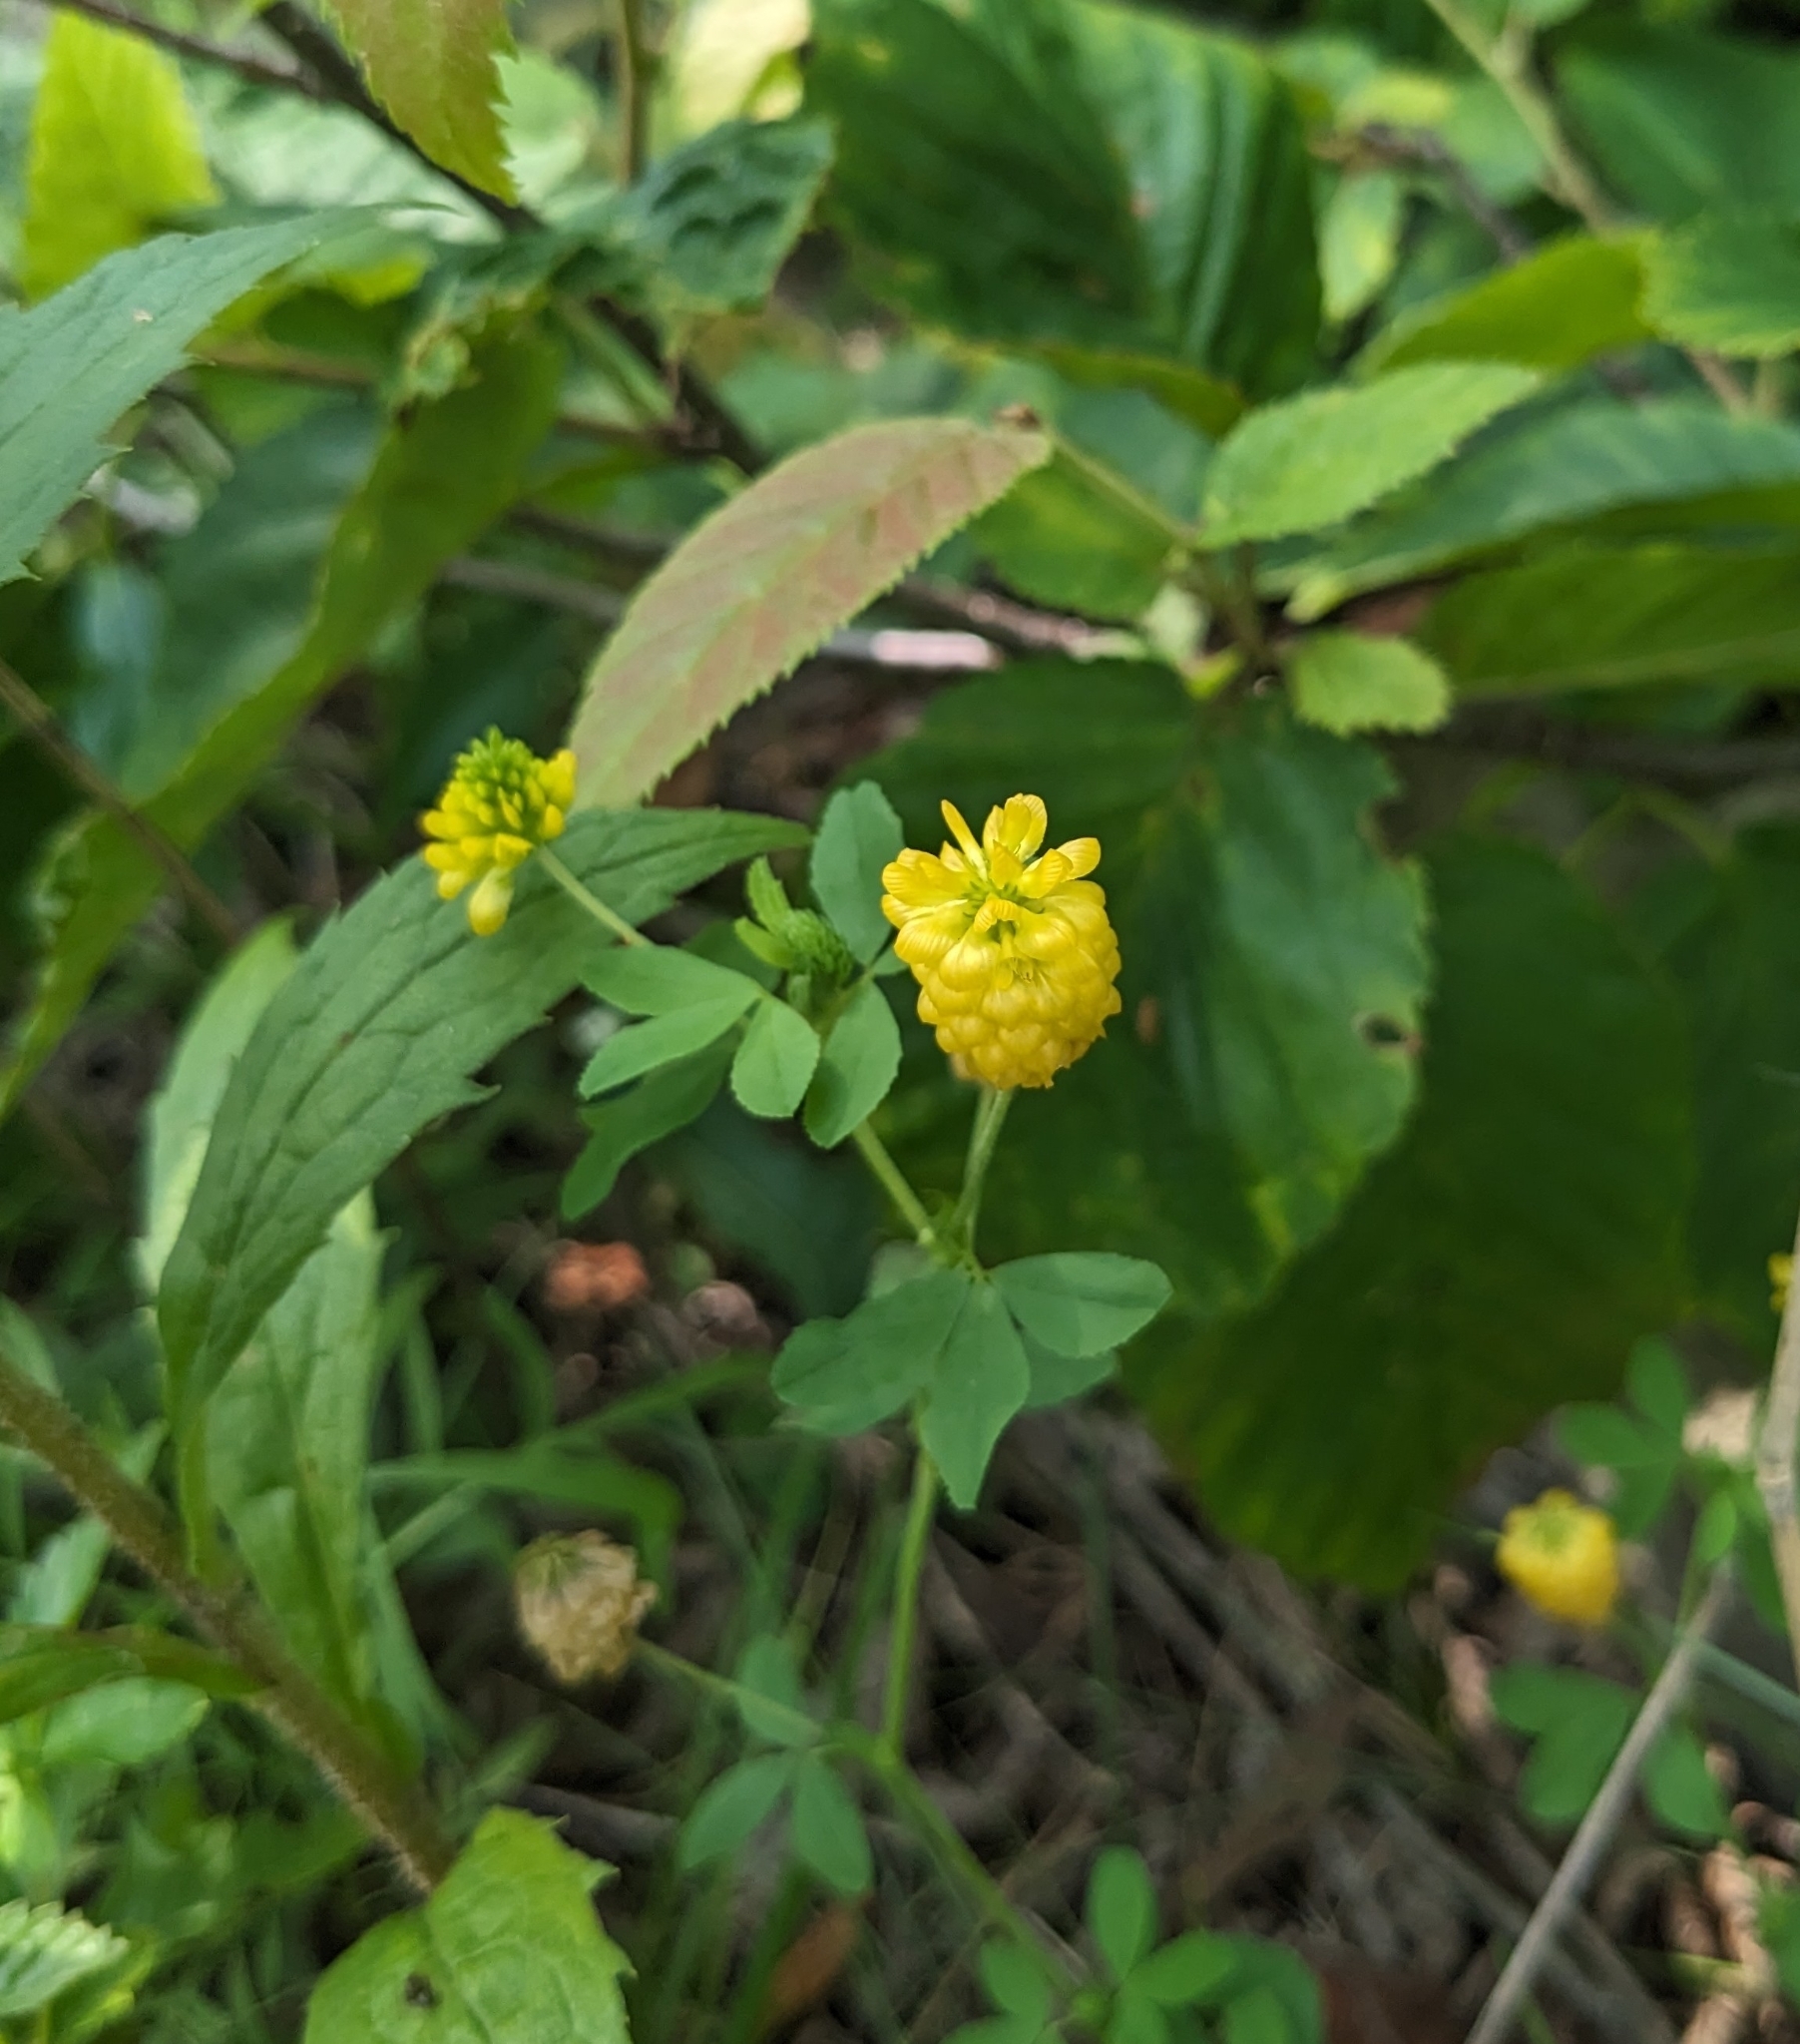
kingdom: Plantae
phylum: Tracheophyta
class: Magnoliopsida
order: Fabales
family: Fabaceae
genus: Trifolium
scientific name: Trifolium aureum
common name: Golden clover
